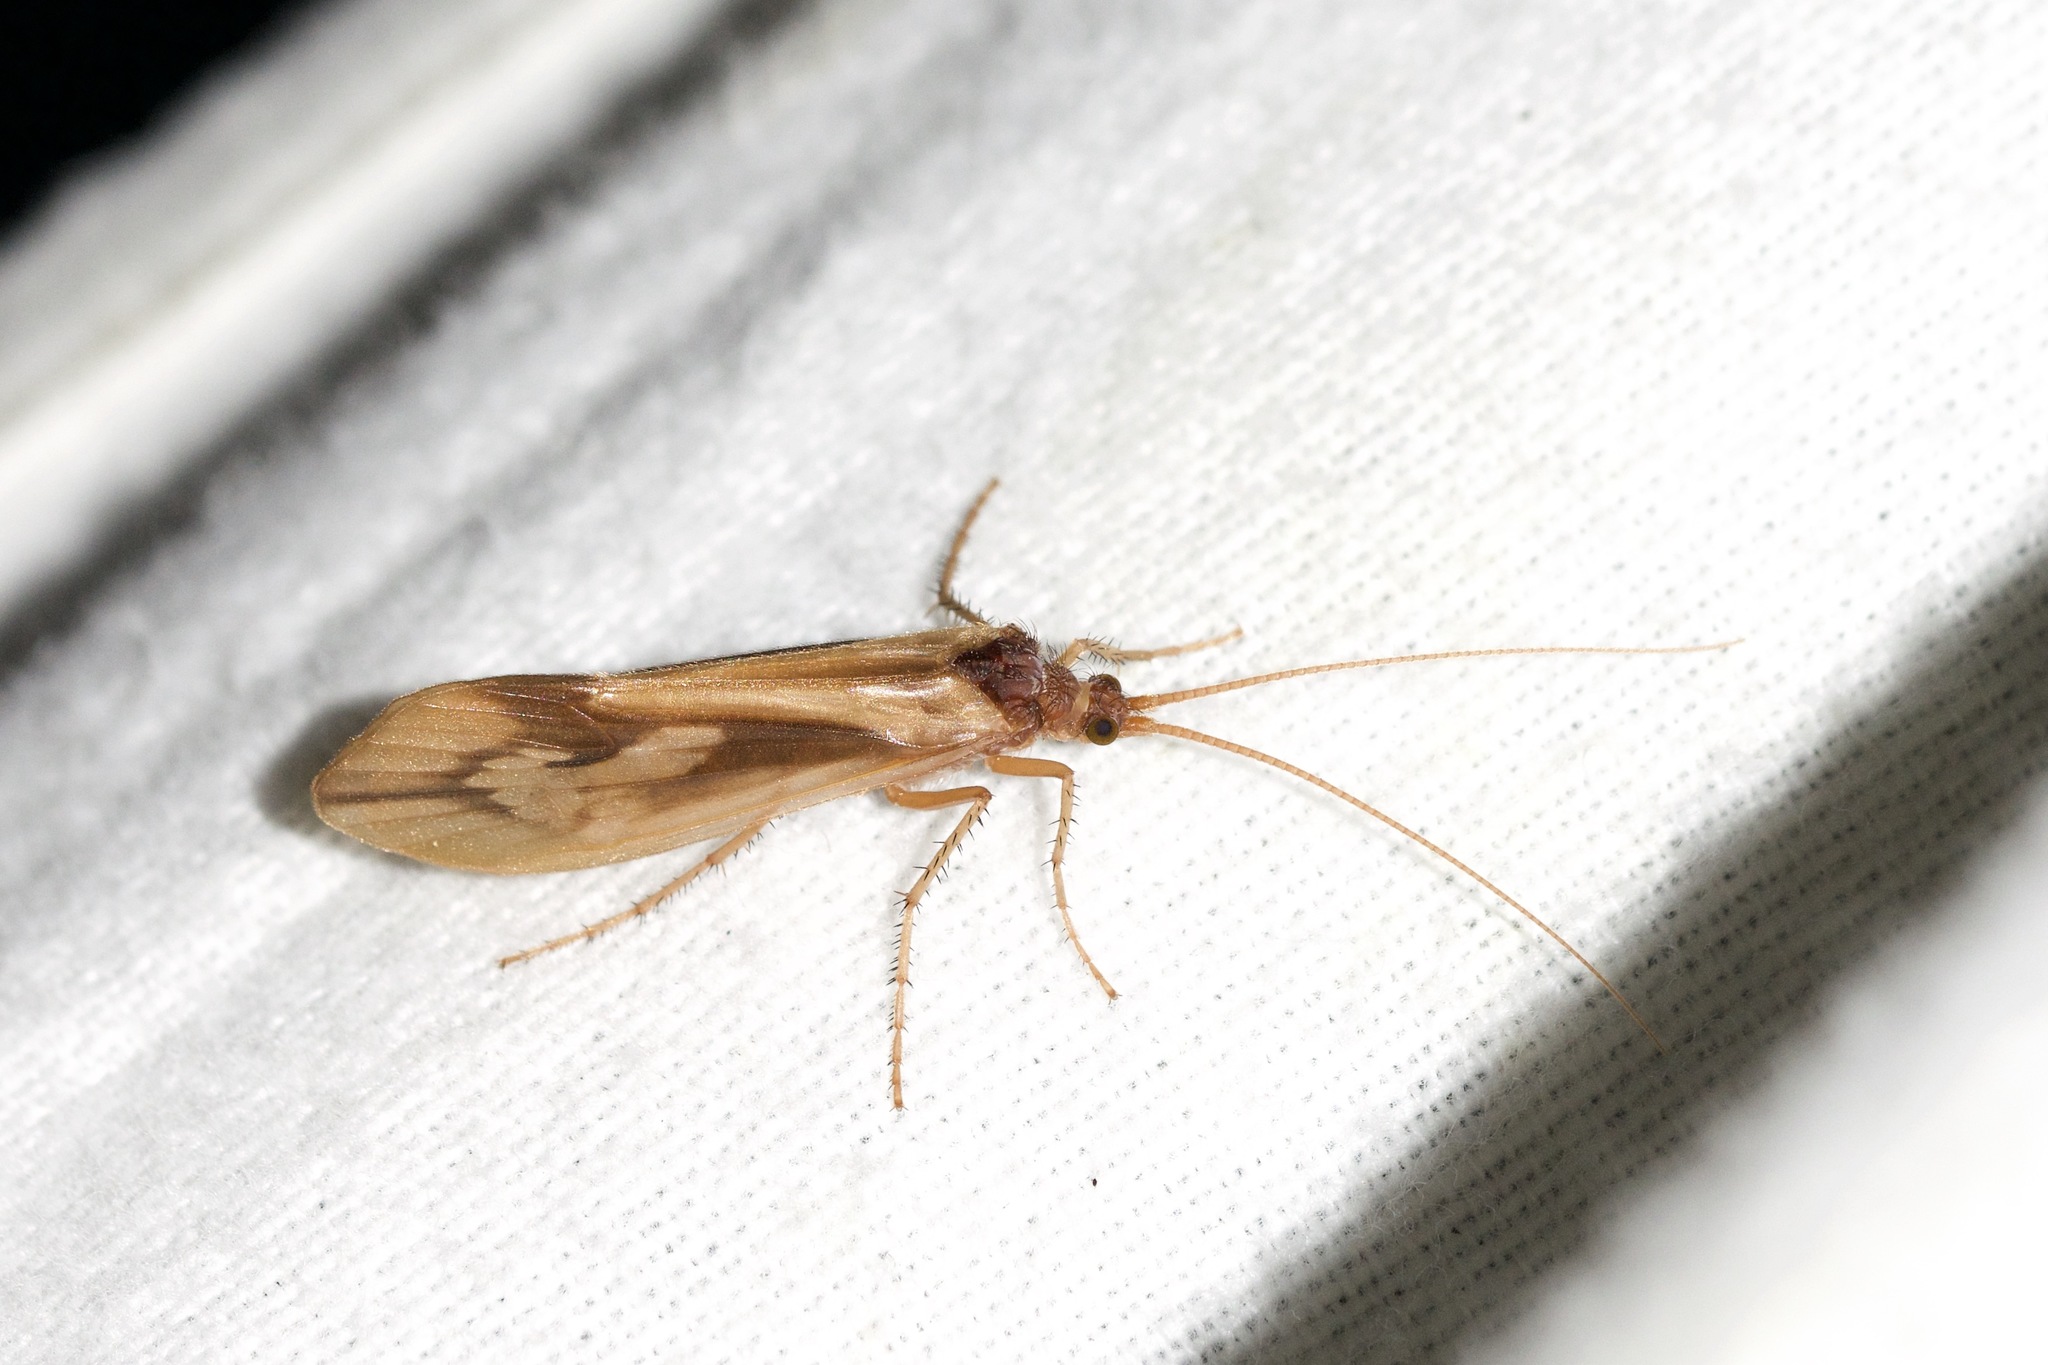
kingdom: Animalia
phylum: Arthropoda
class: Insecta
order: Trichoptera
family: Limnephilidae
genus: Platycentropus
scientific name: Platycentropus radiatus
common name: Chocolate-and-cream sedge
